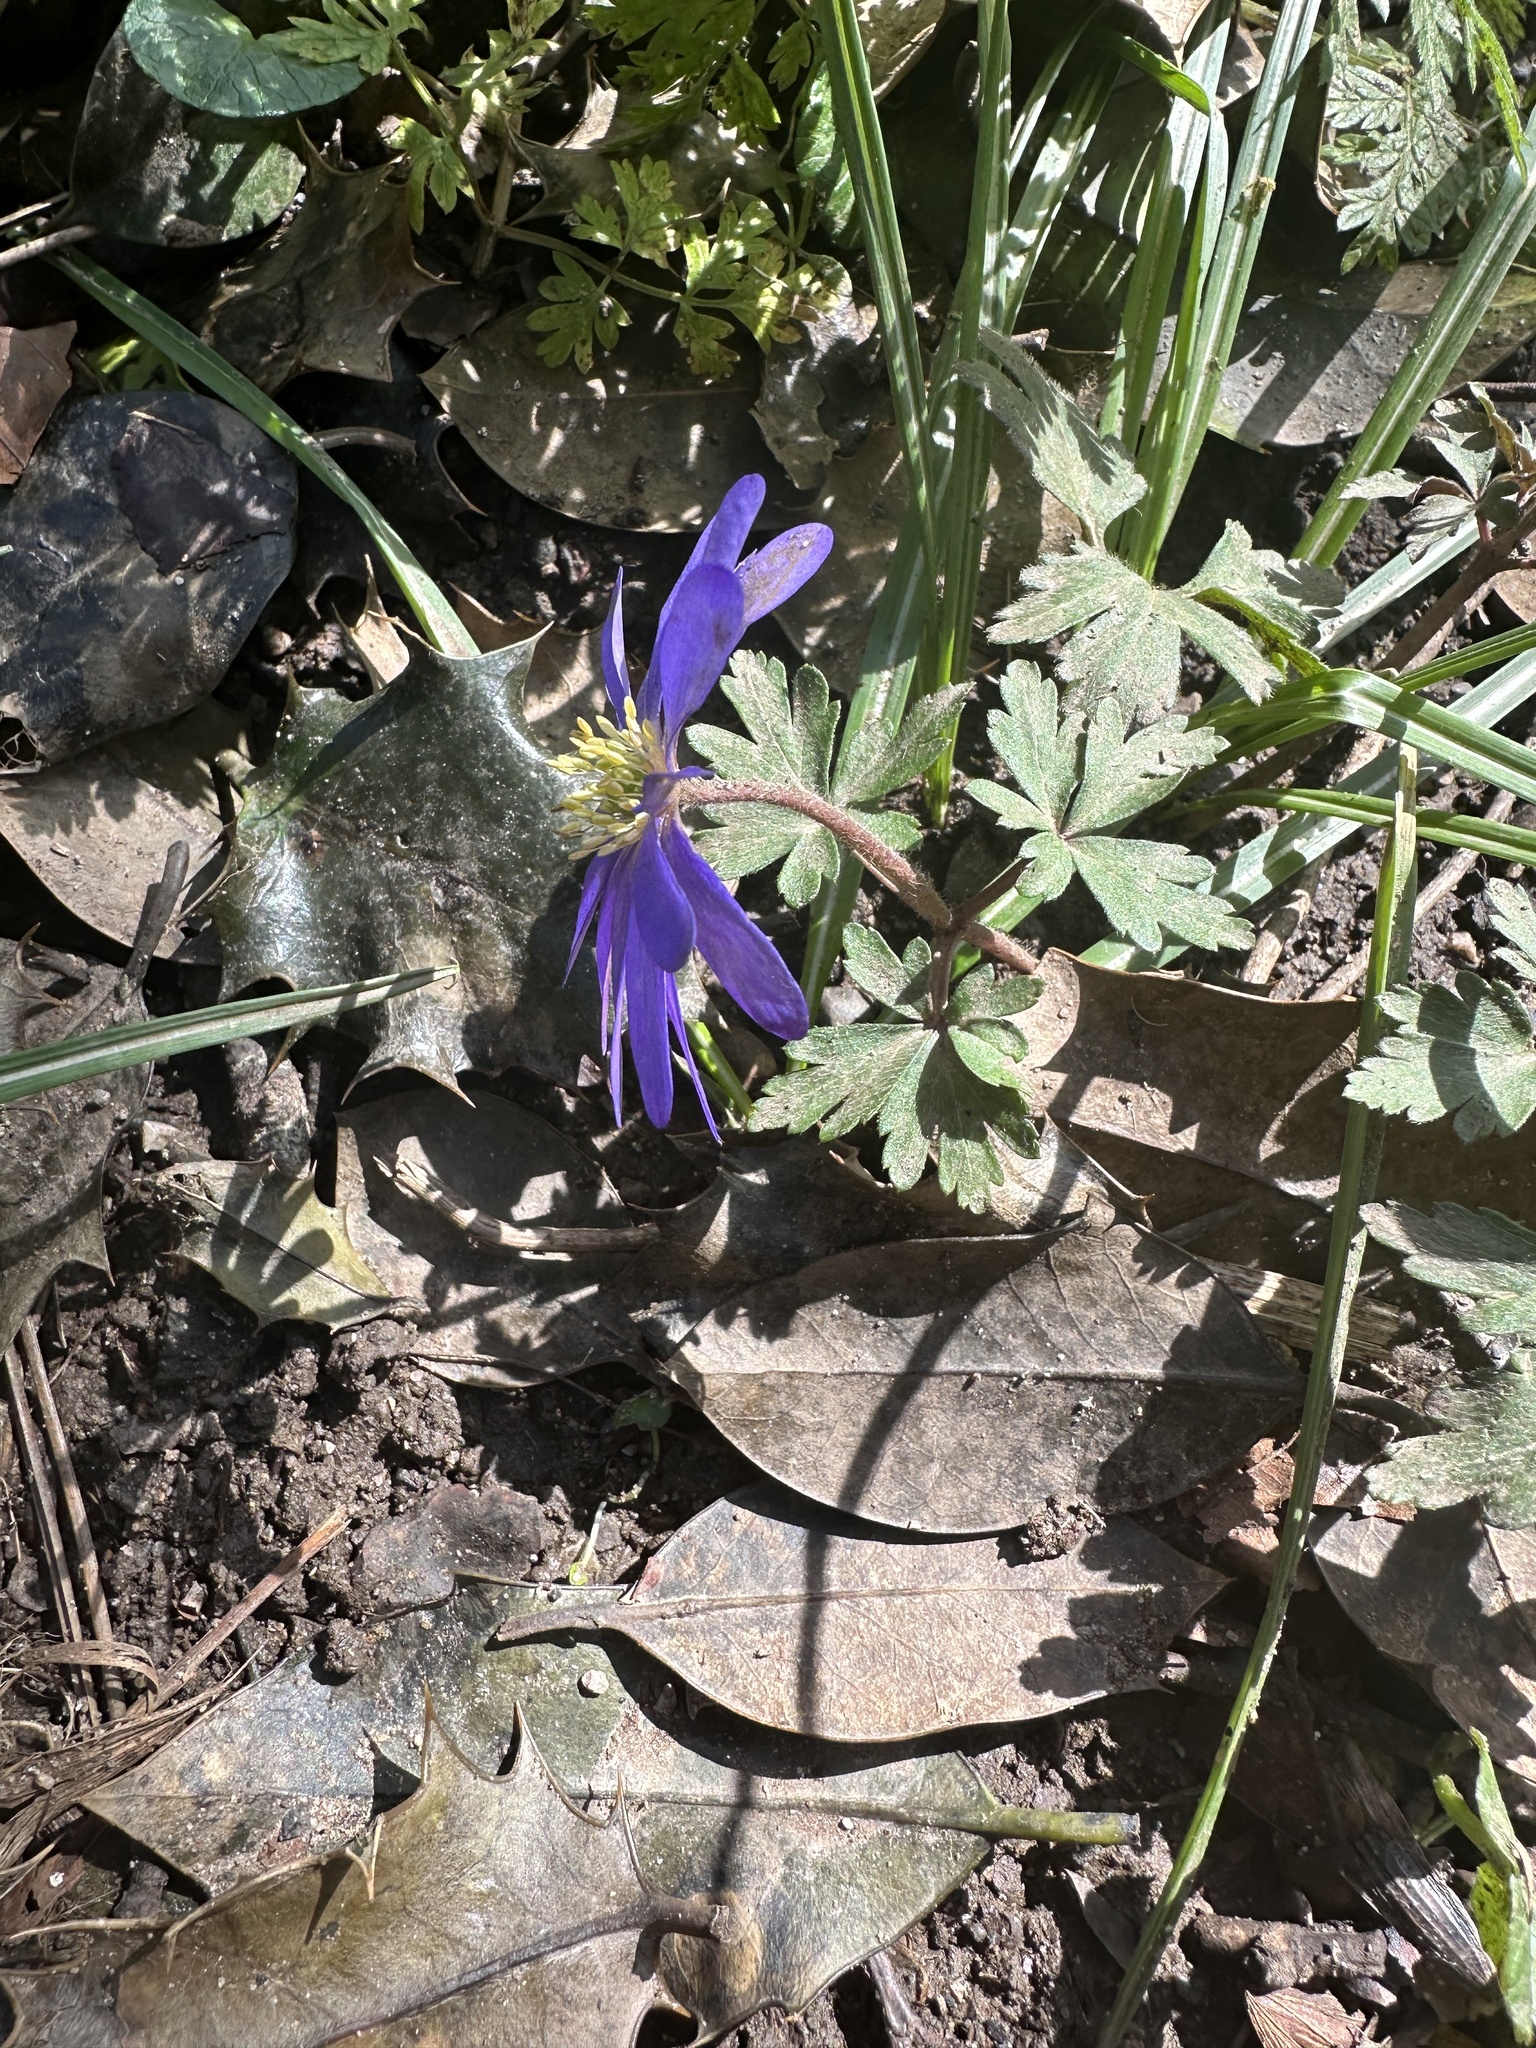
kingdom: Plantae
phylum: Tracheophyta
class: Magnoliopsida
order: Ranunculales
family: Ranunculaceae
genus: Anemone
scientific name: Anemone blanda
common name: Balkan anemone
